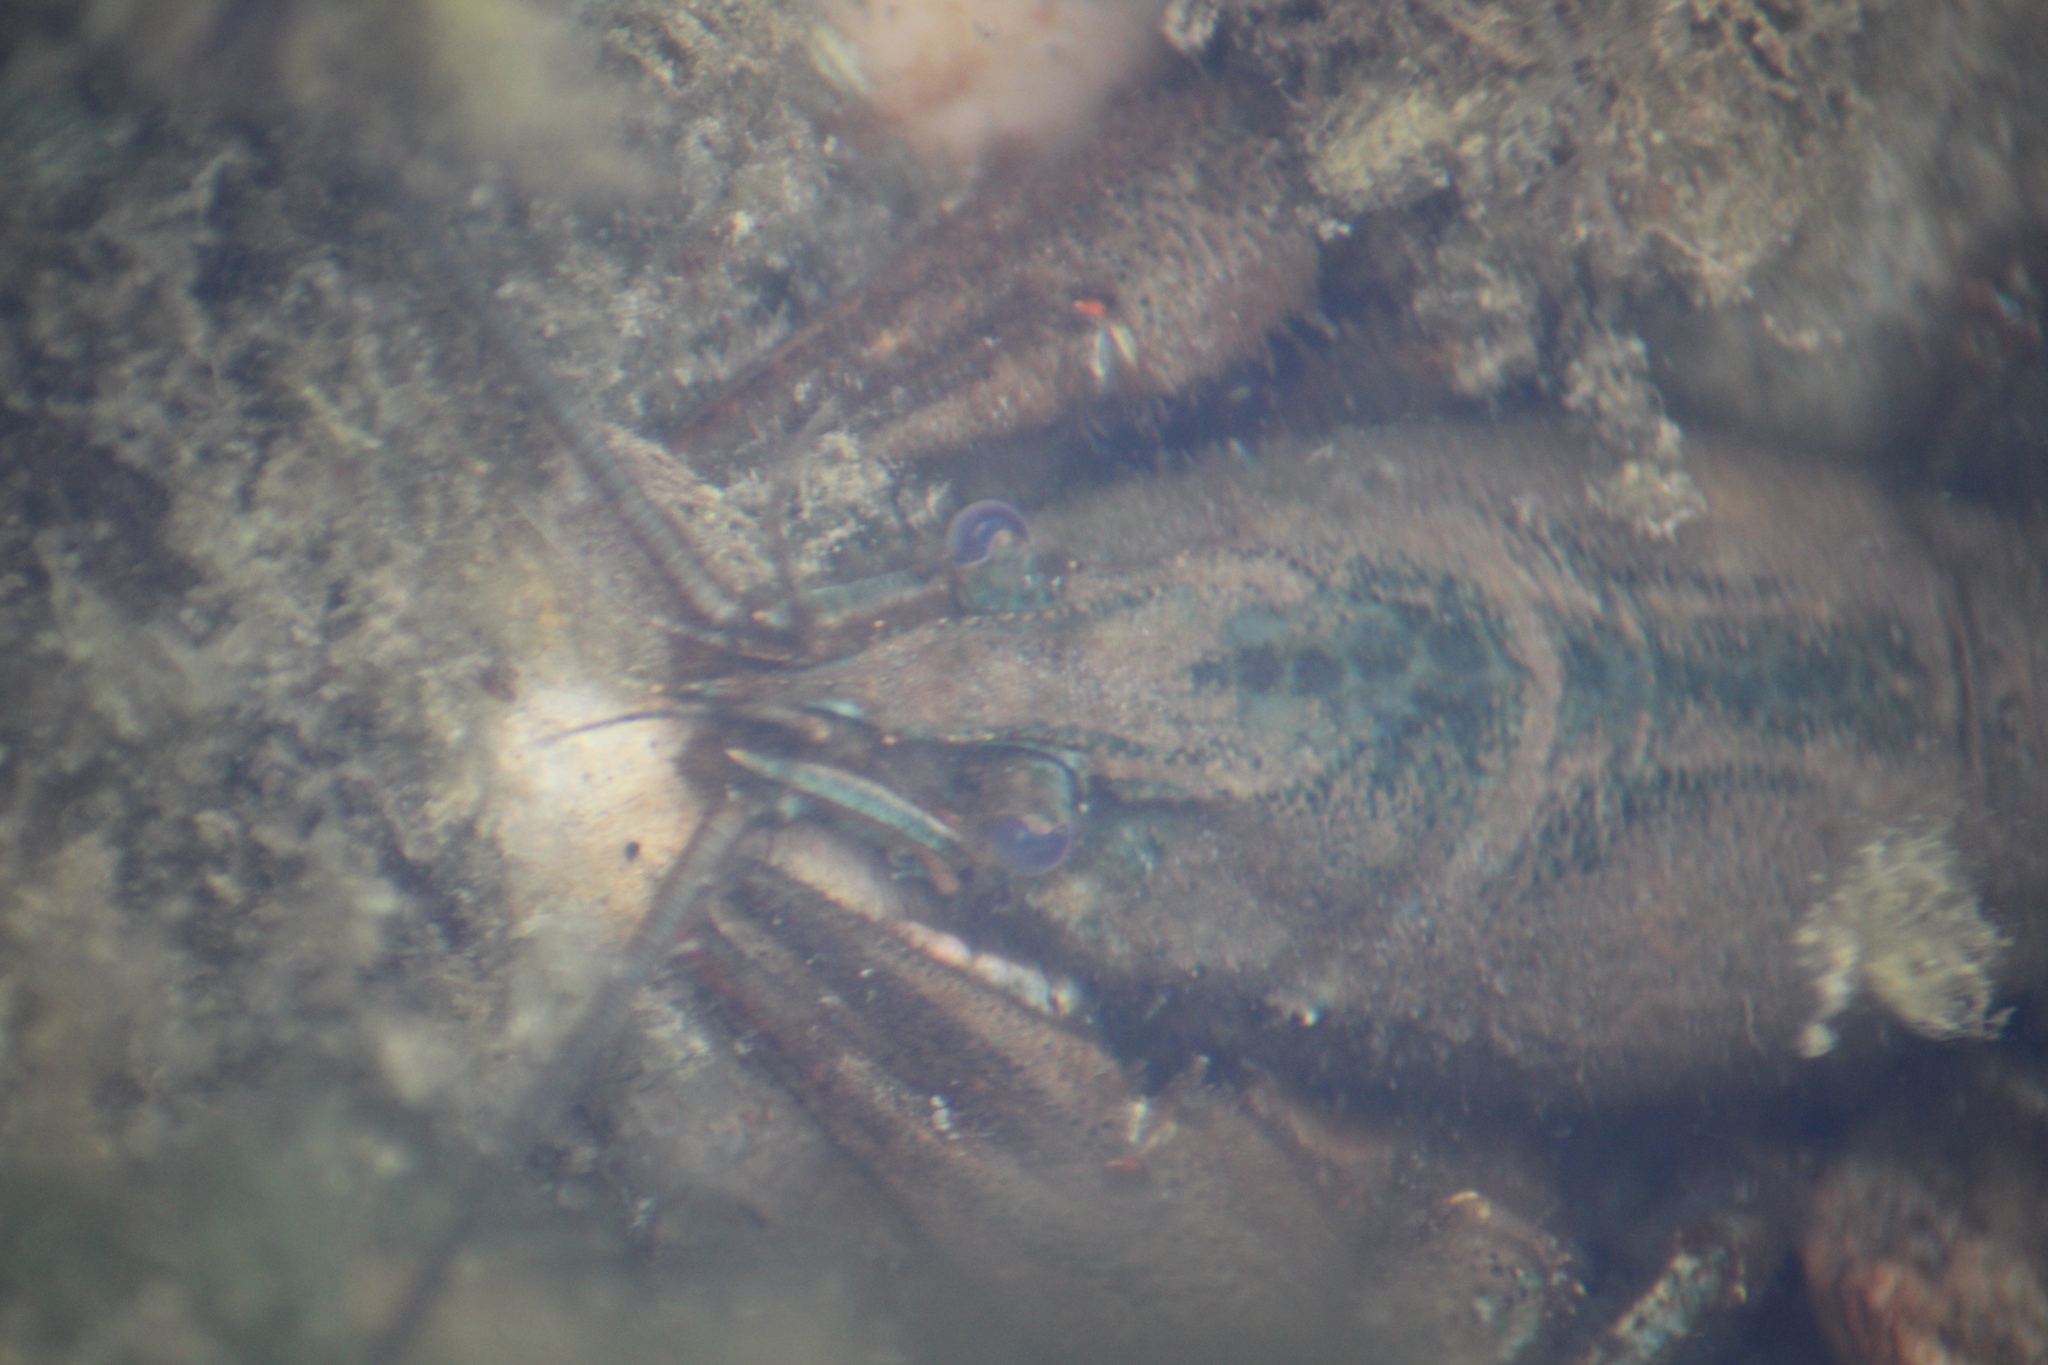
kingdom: Animalia
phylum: Arthropoda
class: Malacostraca
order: Decapoda
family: Cambaridae
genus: Faxonius
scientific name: Faxonius limosus
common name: American crayfish
